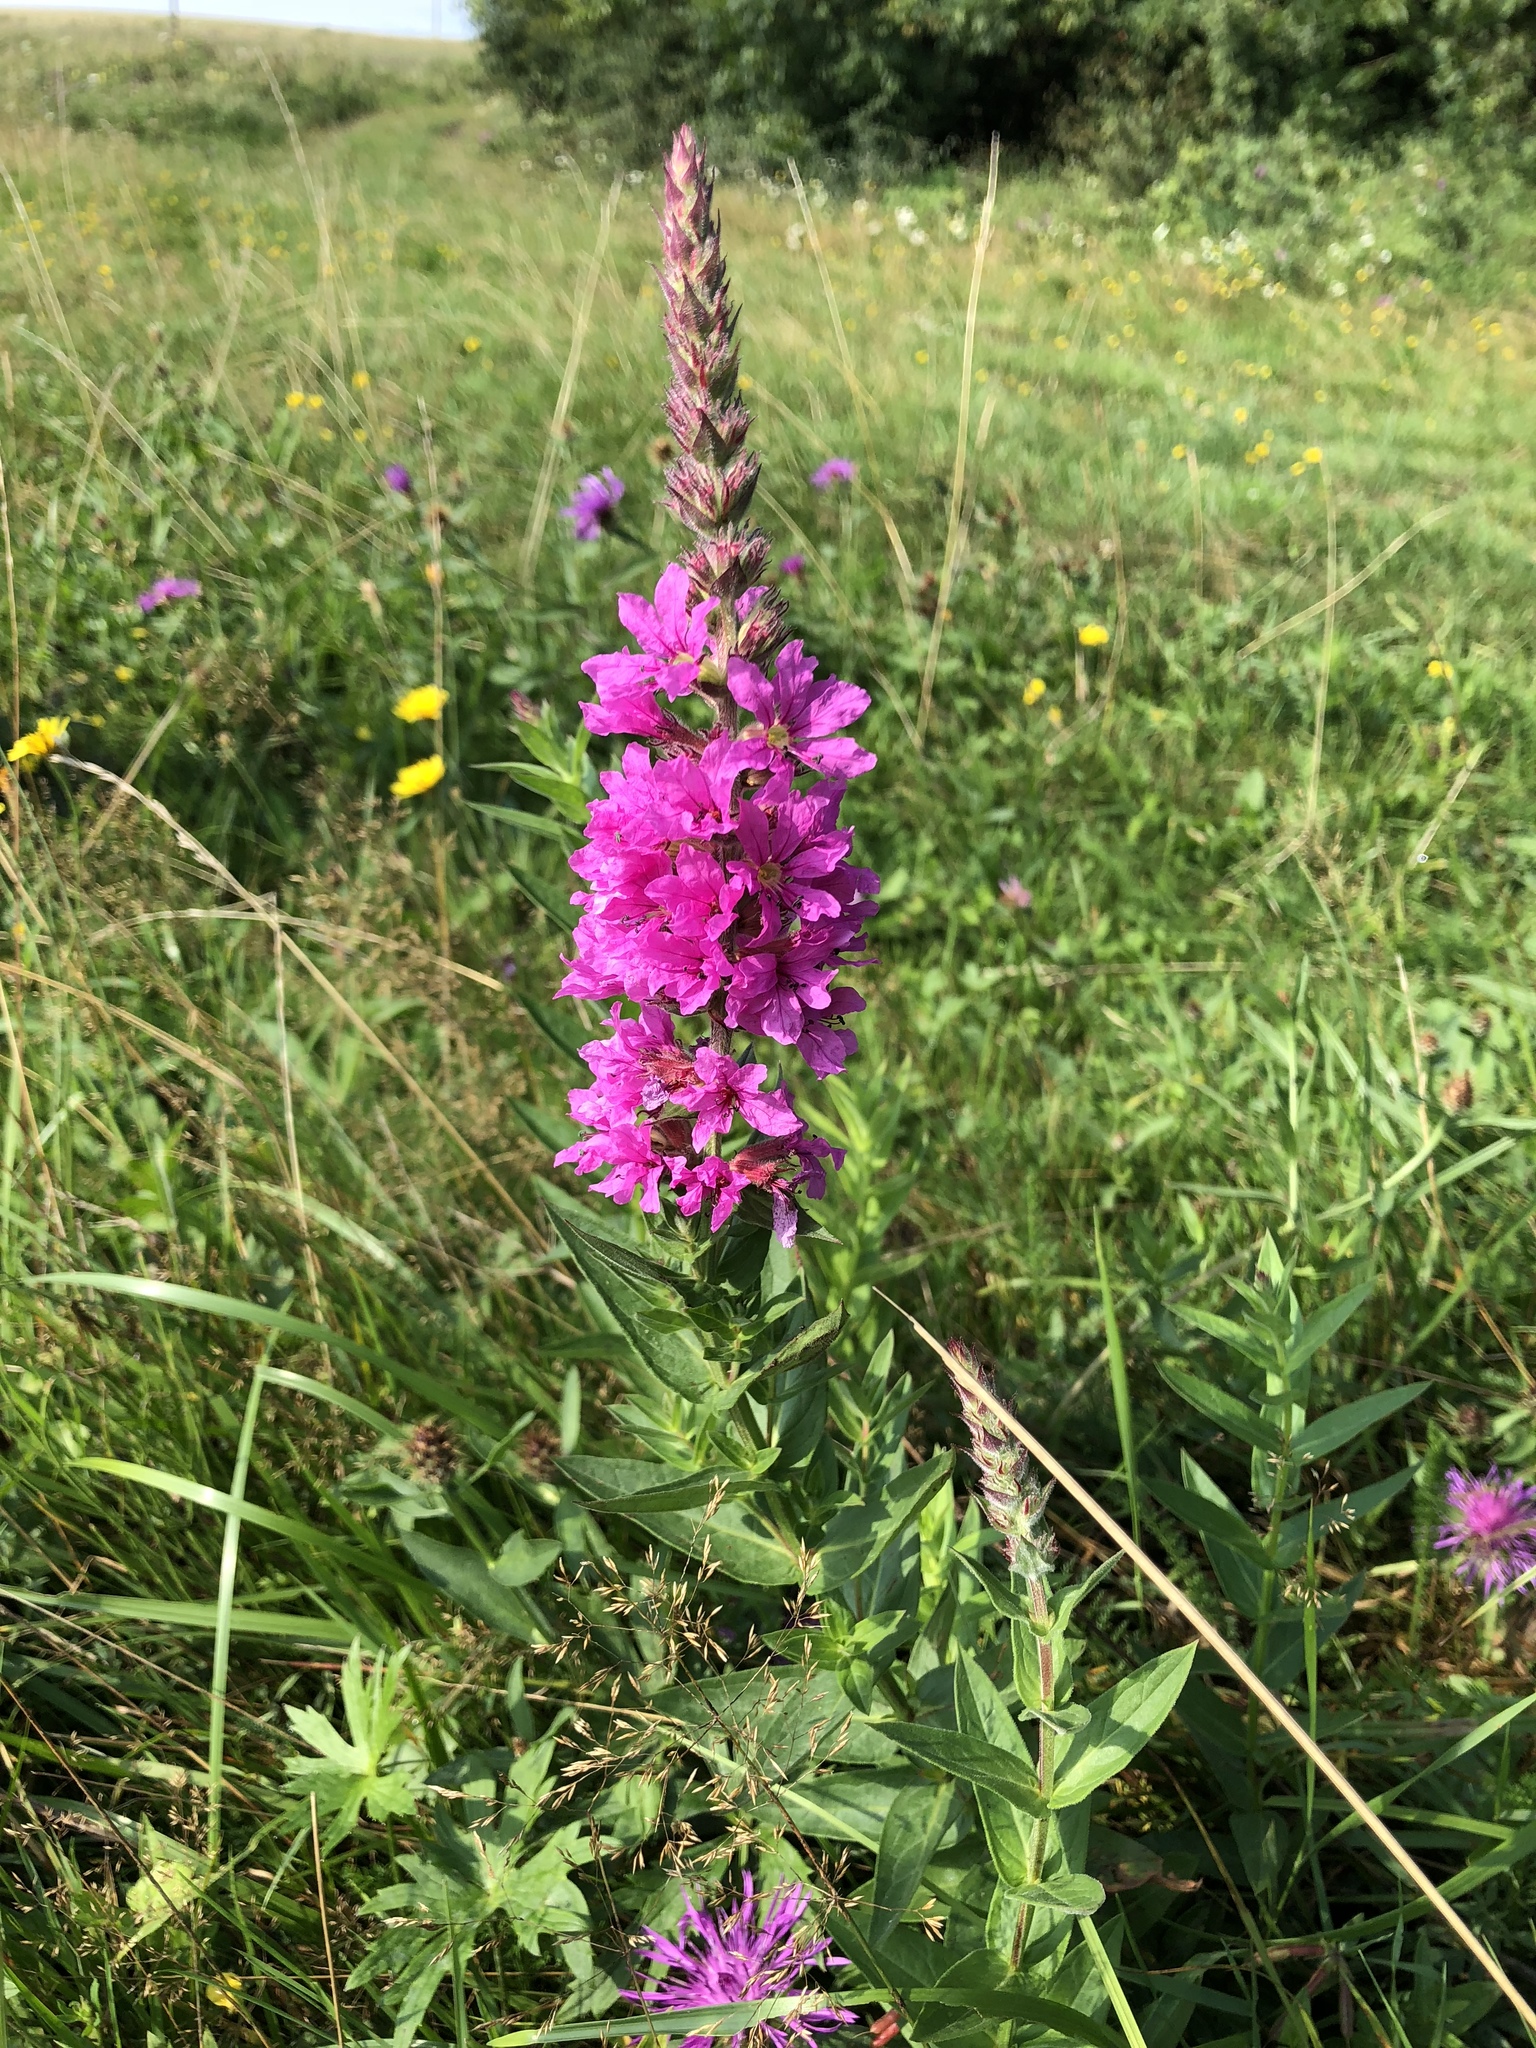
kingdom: Plantae
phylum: Tracheophyta
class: Magnoliopsida
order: Myrtales
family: Lythraceae
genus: Lythrum
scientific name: Lythrum salicaria
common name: Purple loosestrife
